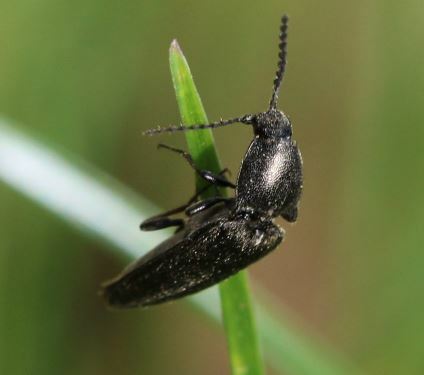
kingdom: Animalia
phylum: Arthropoda
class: Insecta
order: Coleoptera
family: Elateridae
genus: Cidnopus
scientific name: Cidnopus pilosus
